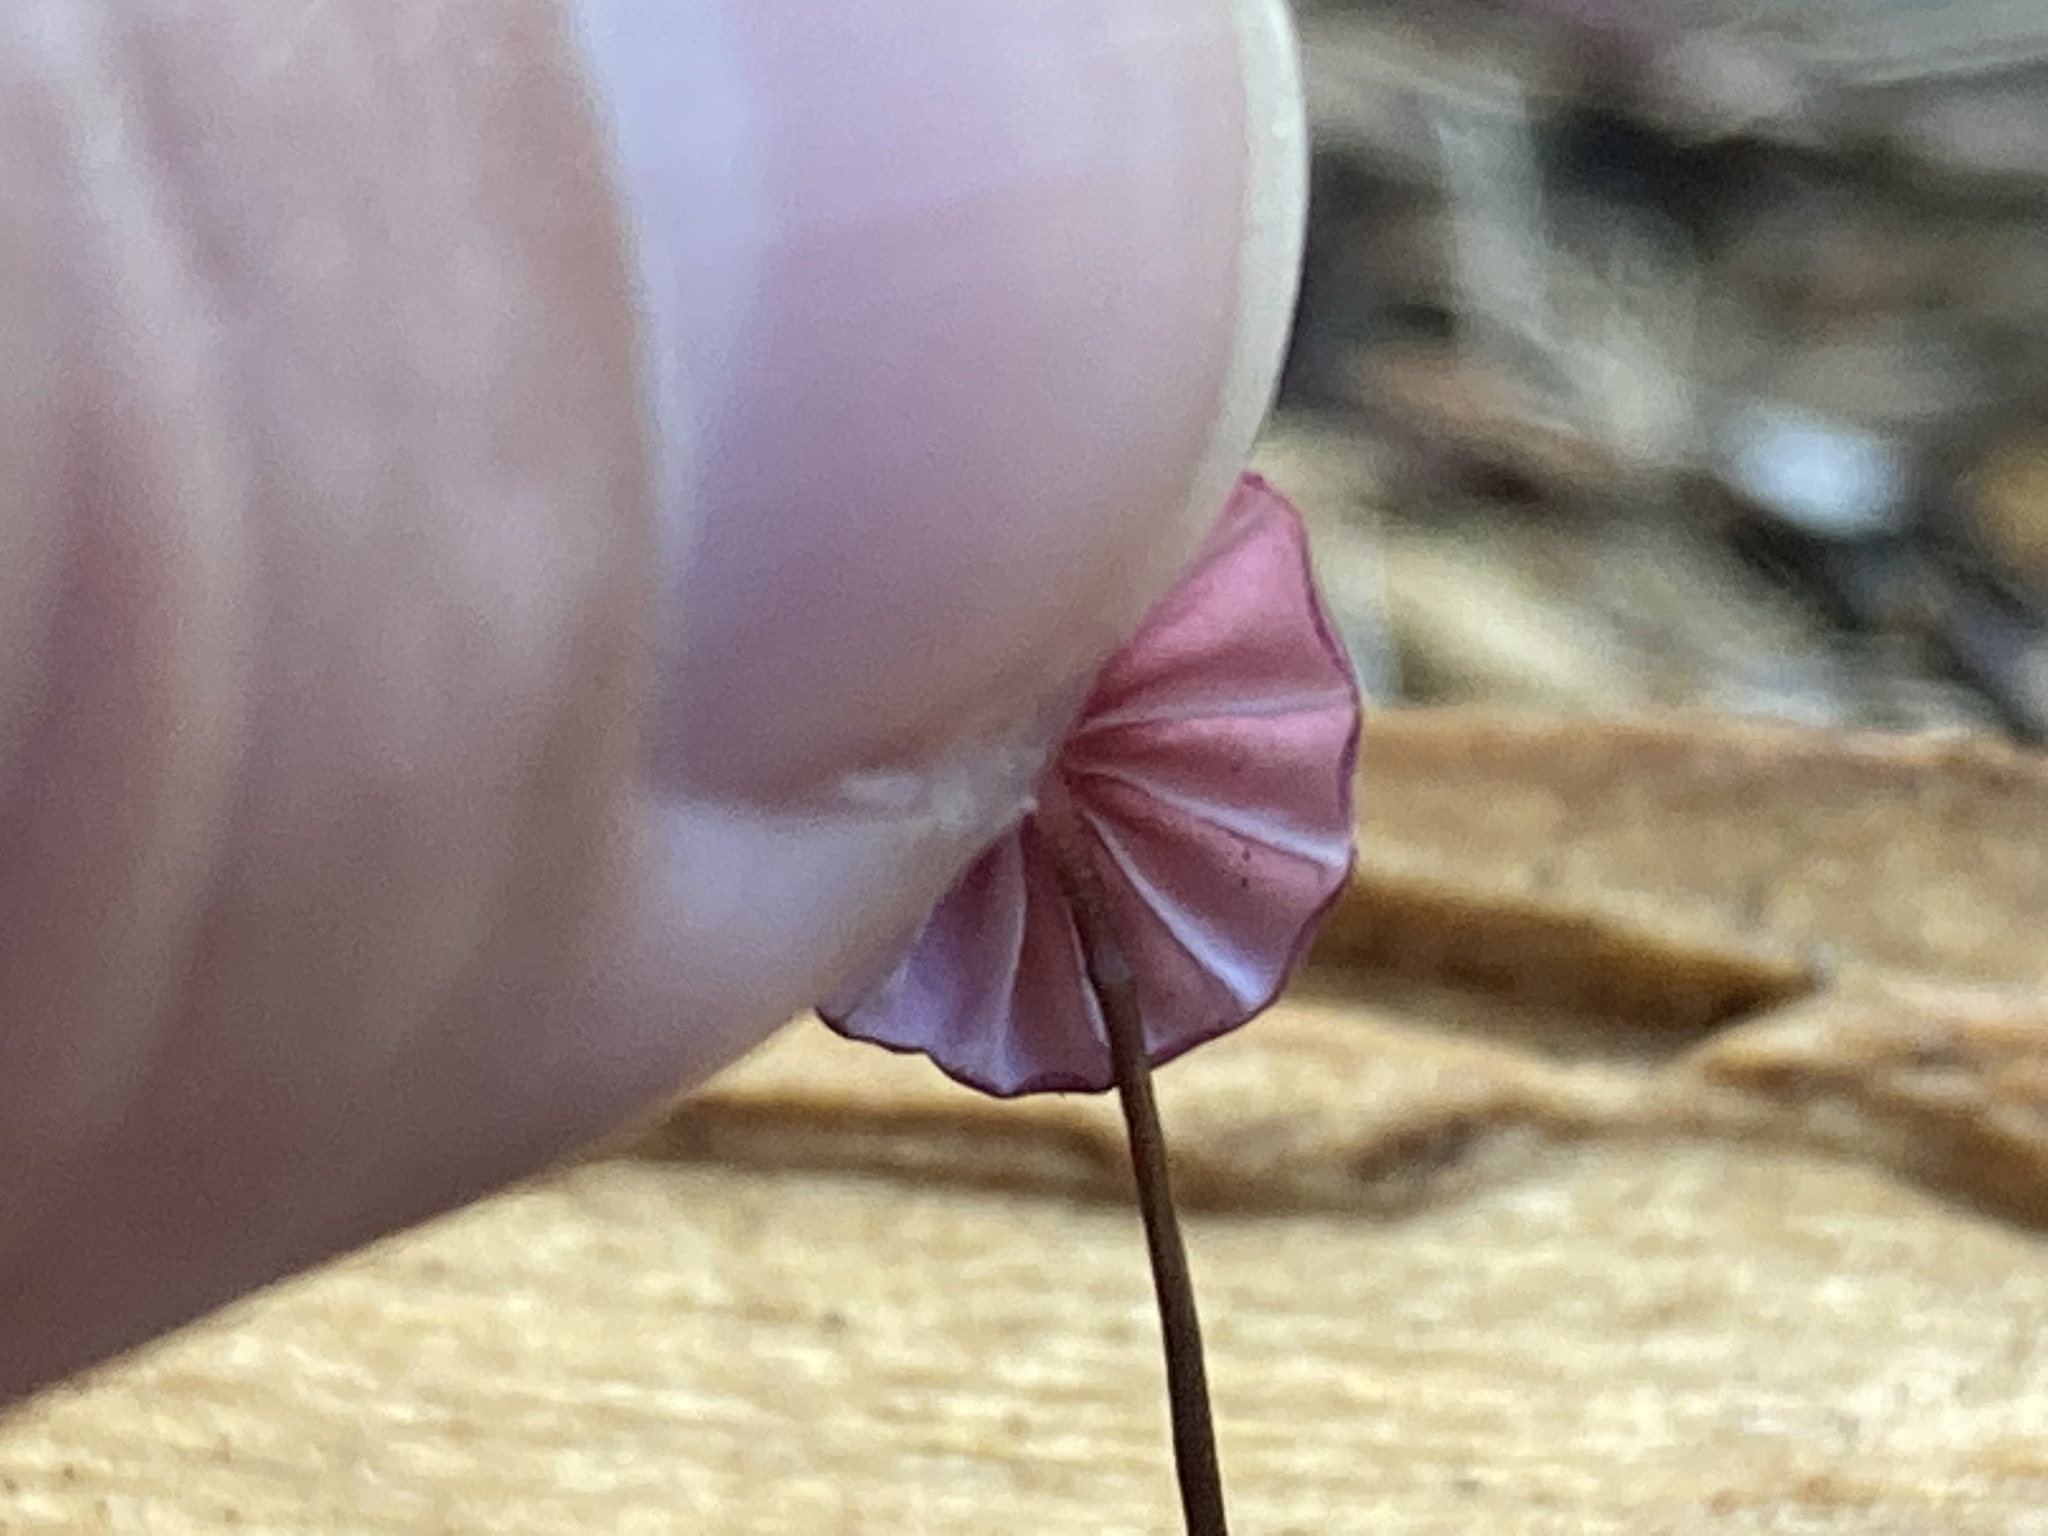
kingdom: Fungi
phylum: Basidiomycota
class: Agaricomycetes
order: Agaricales
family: Marasmiaceae
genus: Marasmius
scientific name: Marasmius haematocephalus
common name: Purple pinwheel
